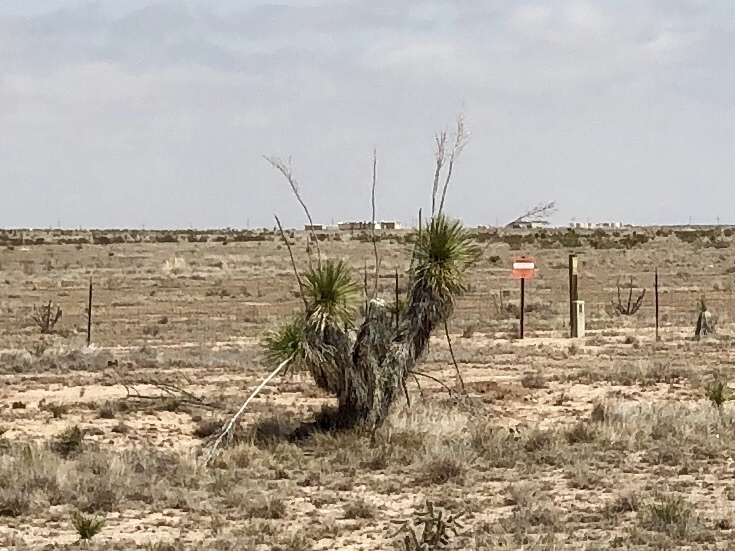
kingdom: Plantae
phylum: Tracheophyta
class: Liliopsida
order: Asparagales
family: Asparagaceae
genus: Yucca
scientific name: Yucca elata
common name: Palmella
